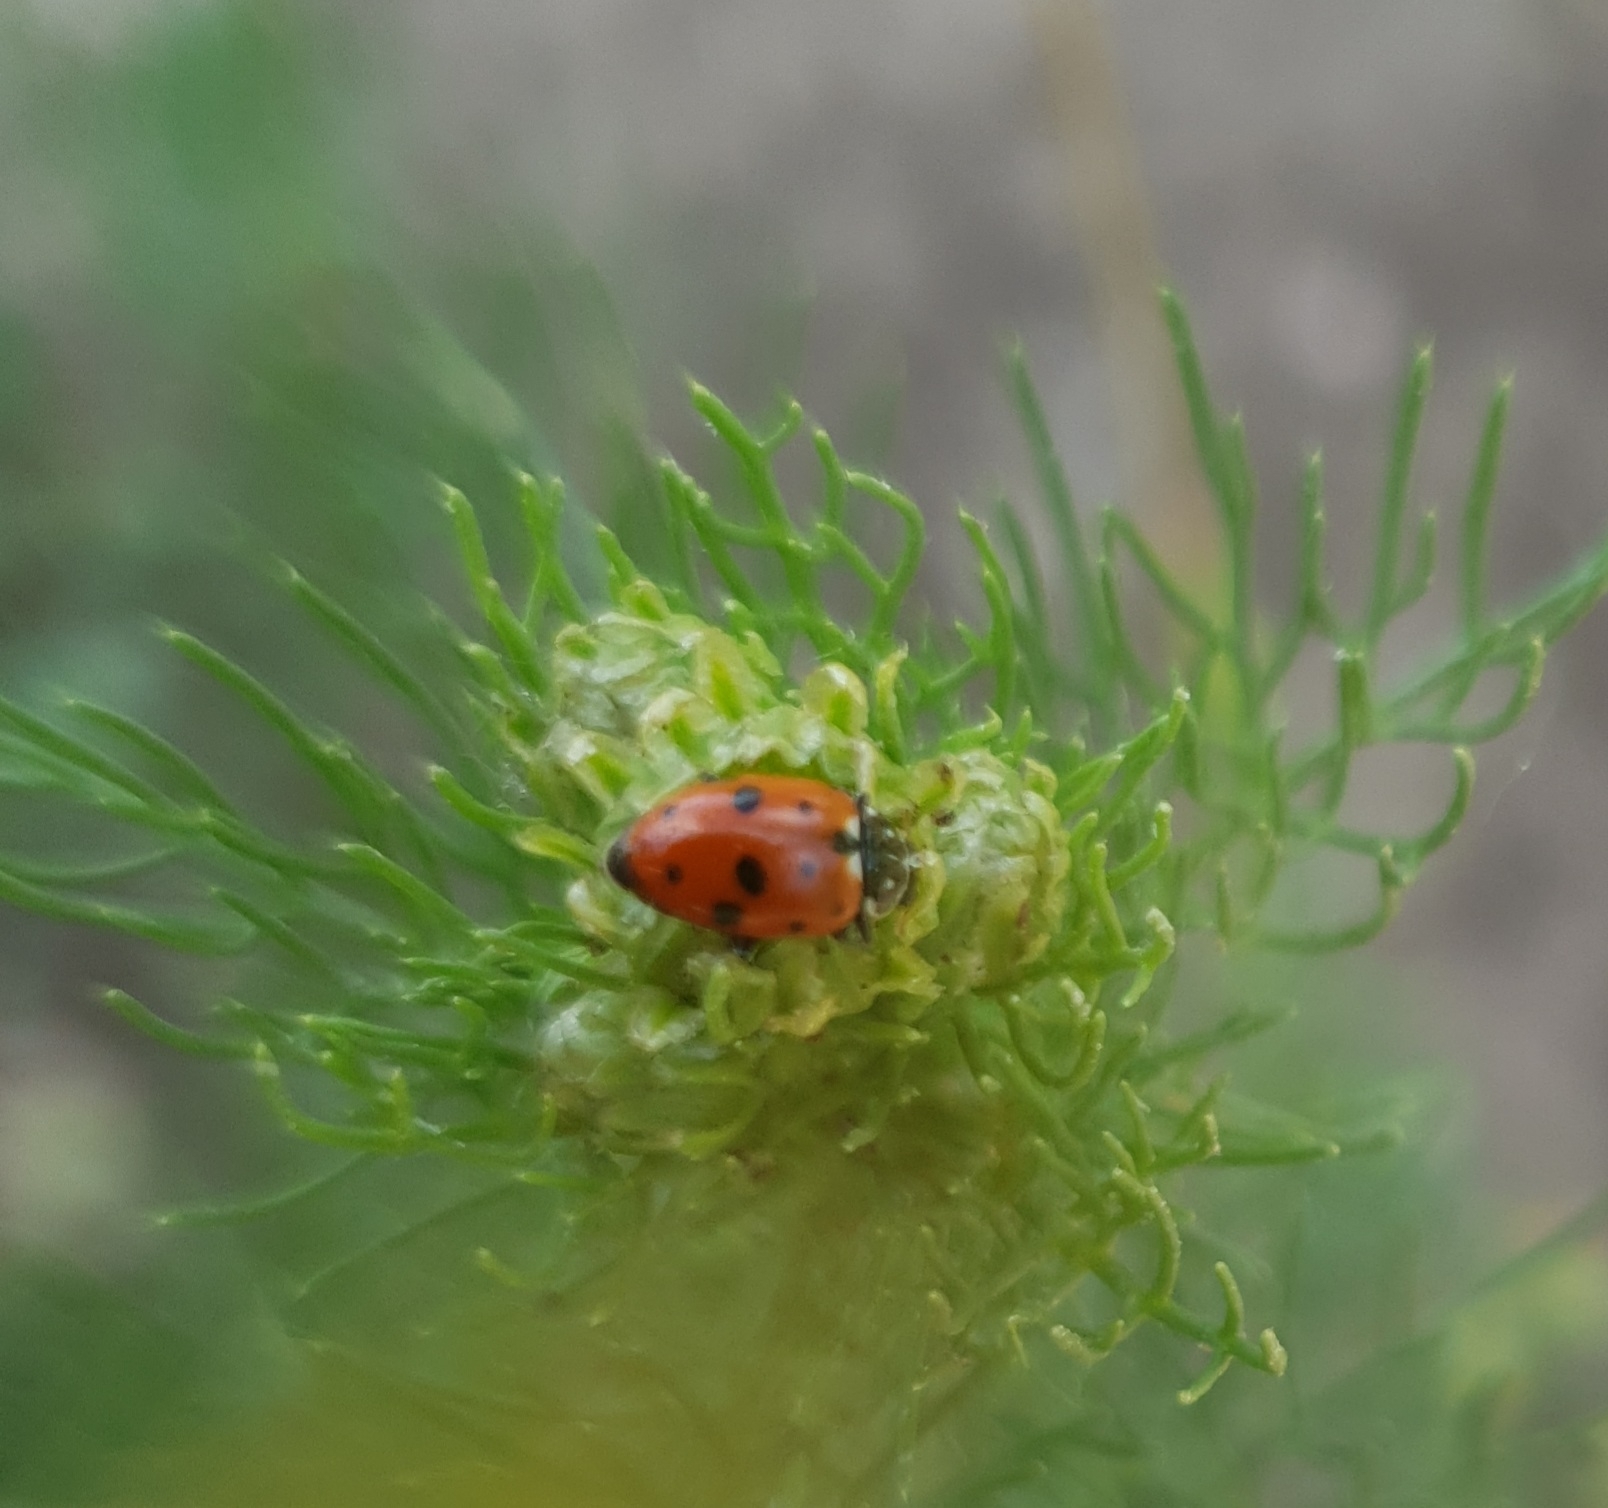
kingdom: Animalia
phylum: Arthropoda
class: Insecta
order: Coleoptera
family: Coccinellidae
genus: Hippodamia
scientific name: Hippodamia variegata
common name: Ladybird beetle
